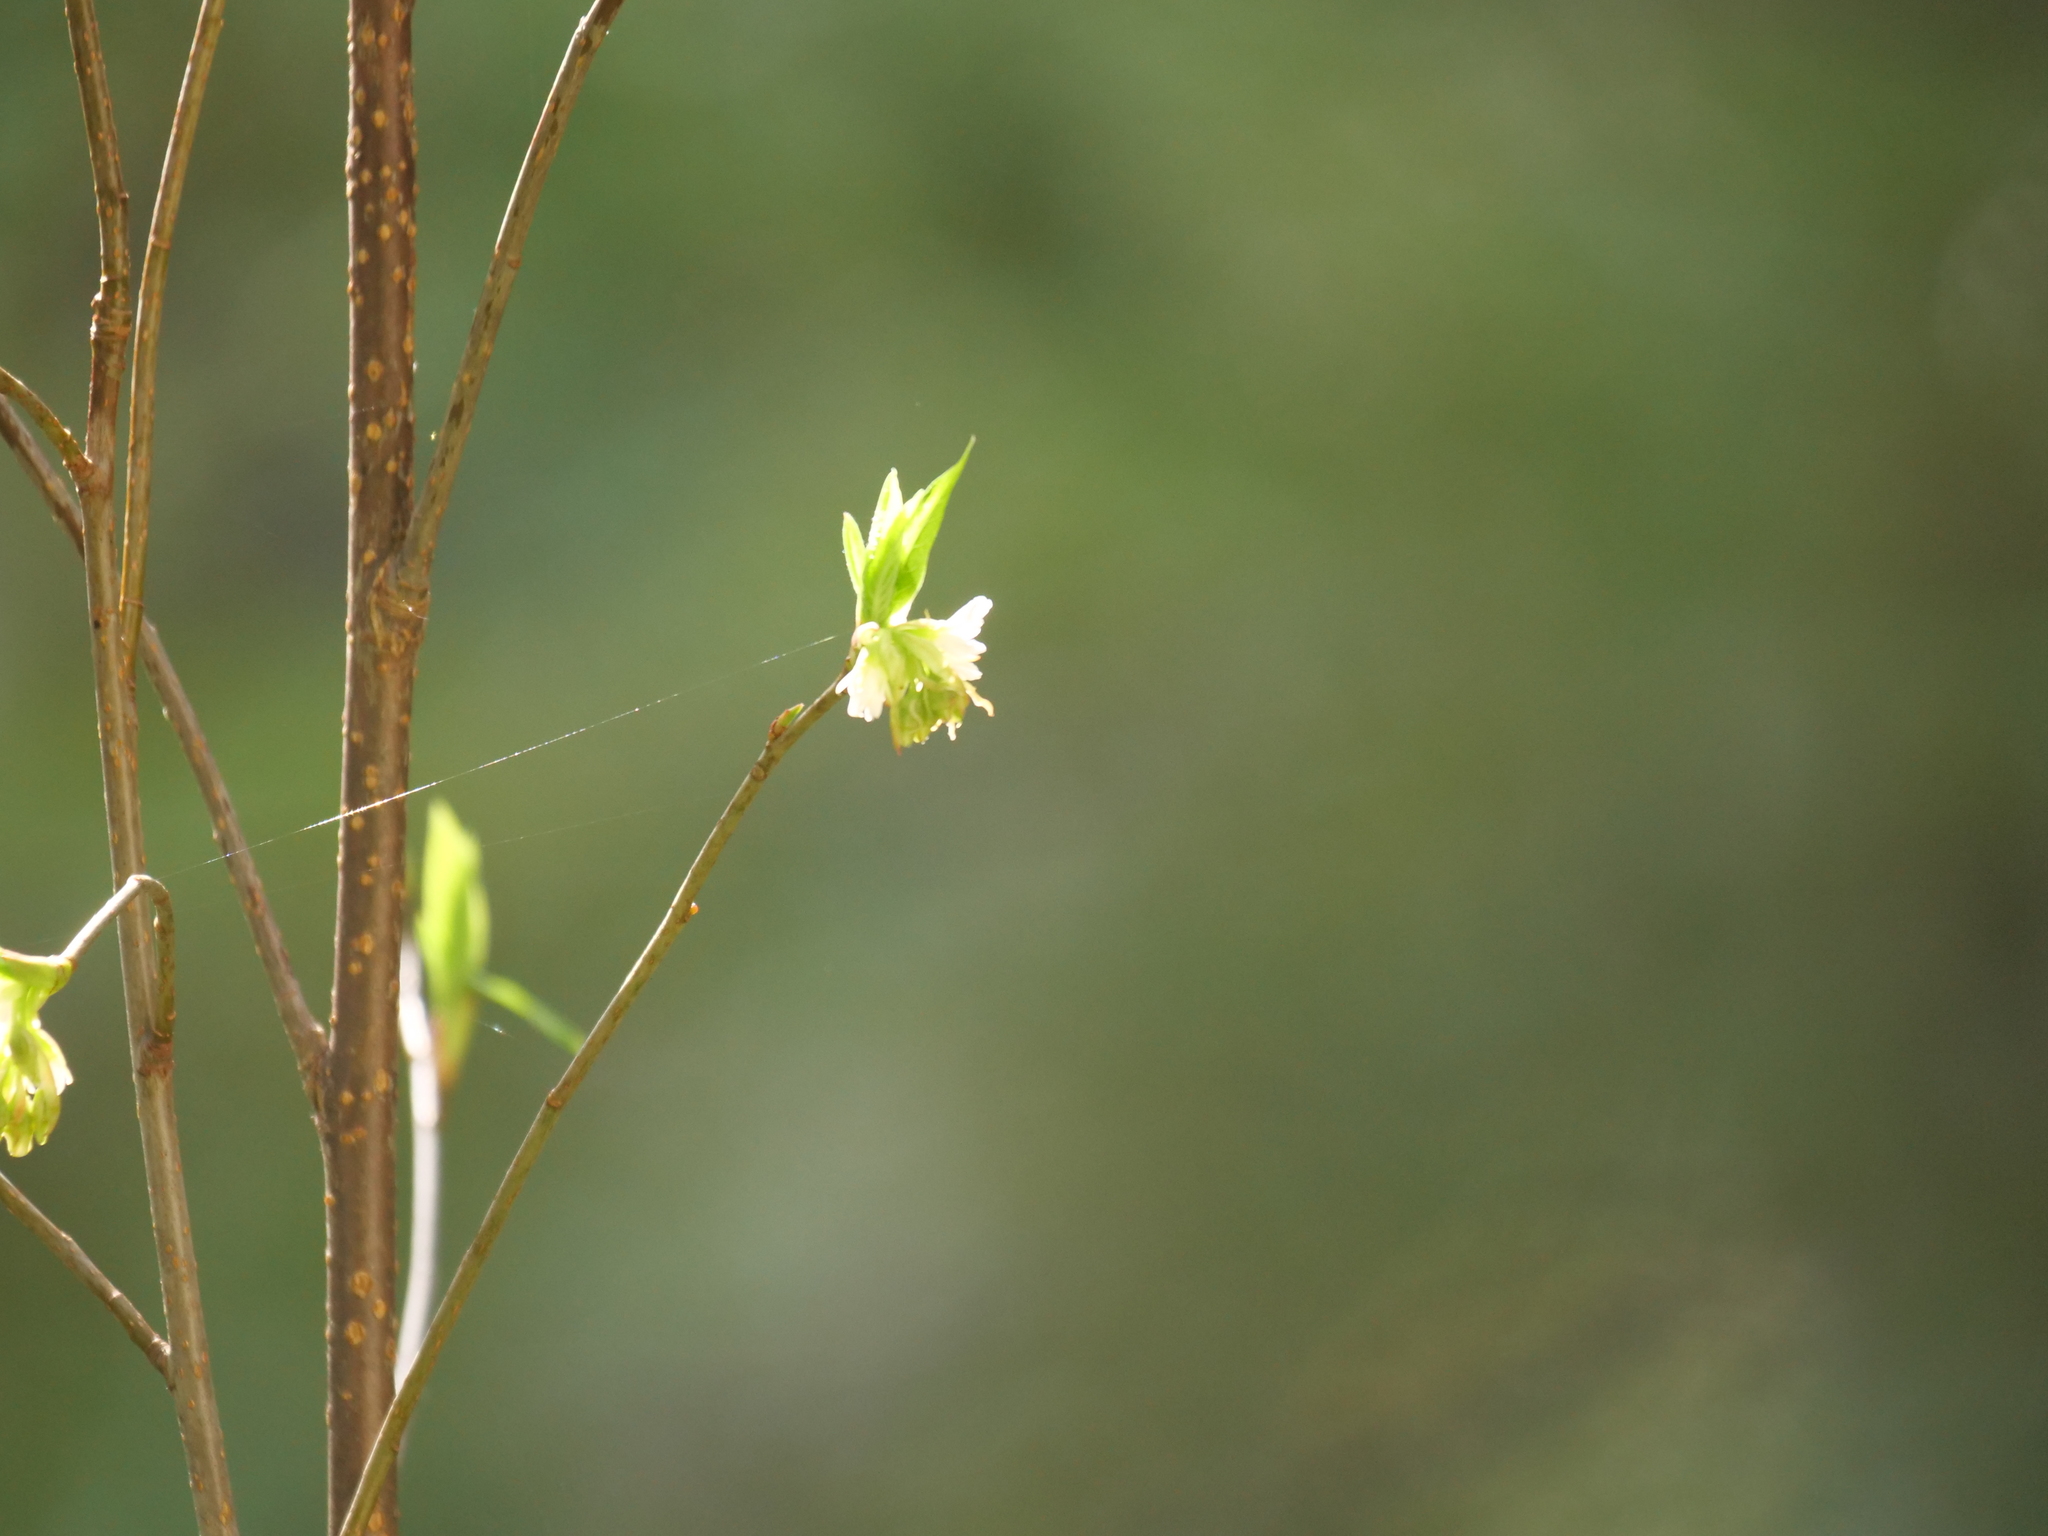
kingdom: Plantae
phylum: Tracheophyta
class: Magnoliopsida
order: Rosales
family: Rosaceae
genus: Oemleria
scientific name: Oemleria cerasiformis
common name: Osoberry
